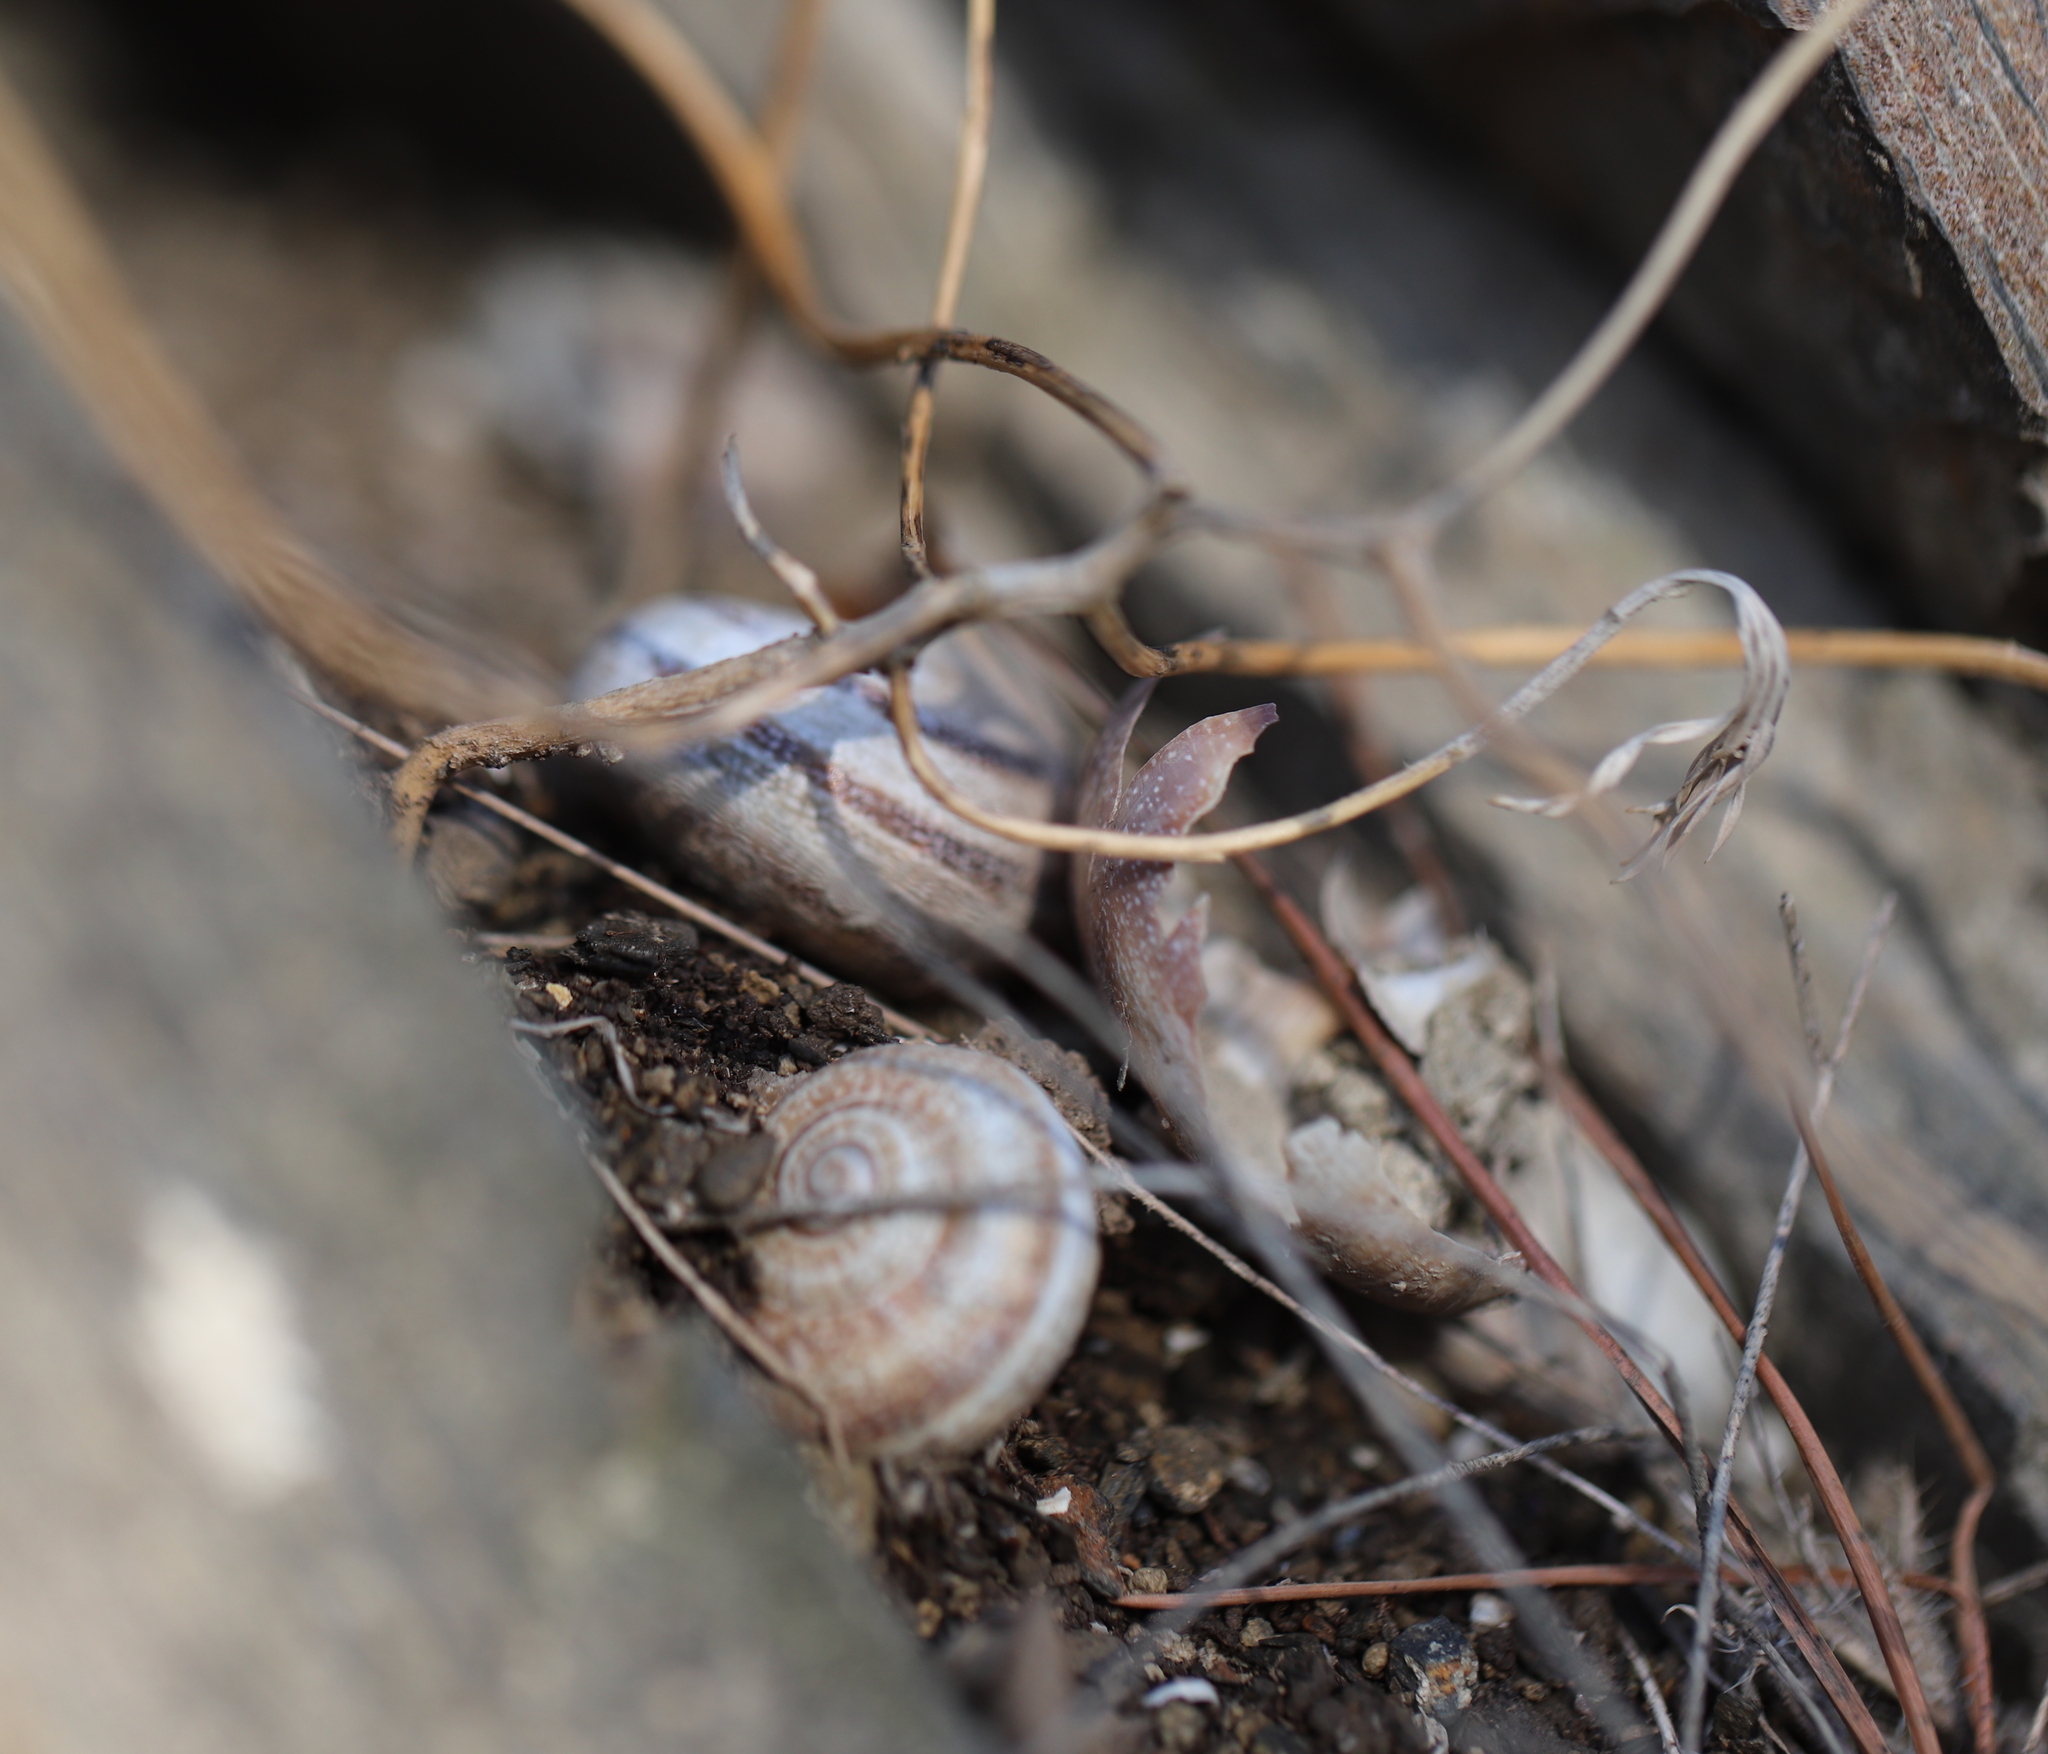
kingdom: Animalia
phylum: Mollusca
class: Gastropoda
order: Stylommatophora
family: Helicidae
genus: Otala
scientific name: Otala punctata
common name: Milk snail
